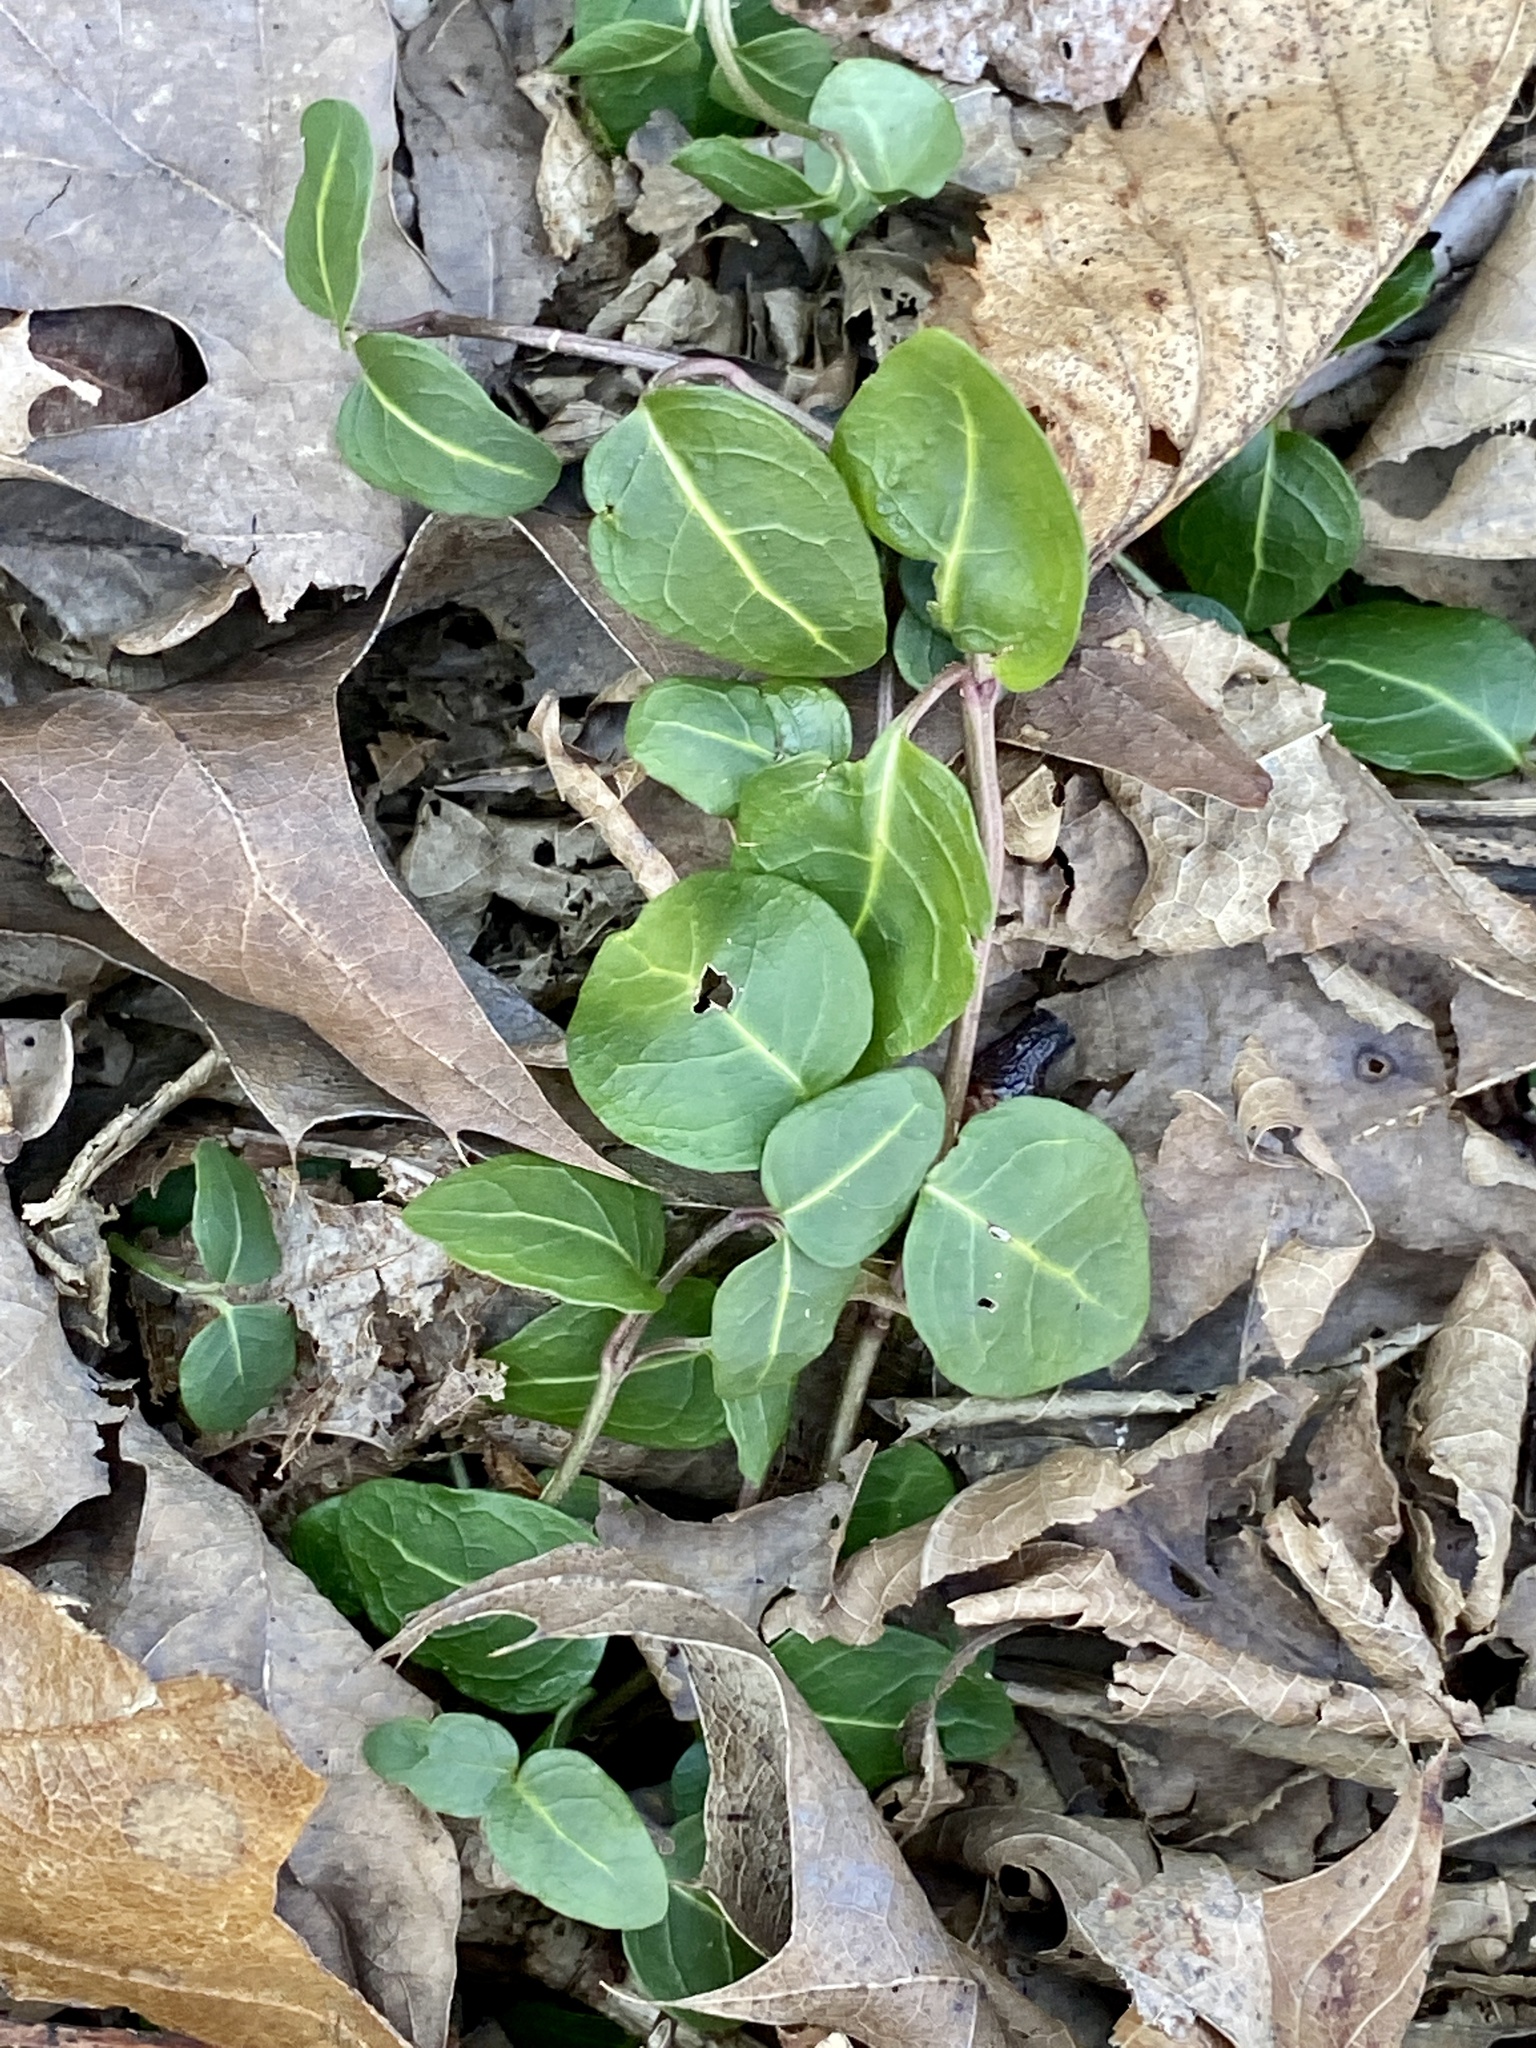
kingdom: Plantae
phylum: Tracheophyta
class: Magnoliopsida
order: Gentianales
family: Rubiaceae
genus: Mitchella
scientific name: Mitchella repens
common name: Partridge-berry
